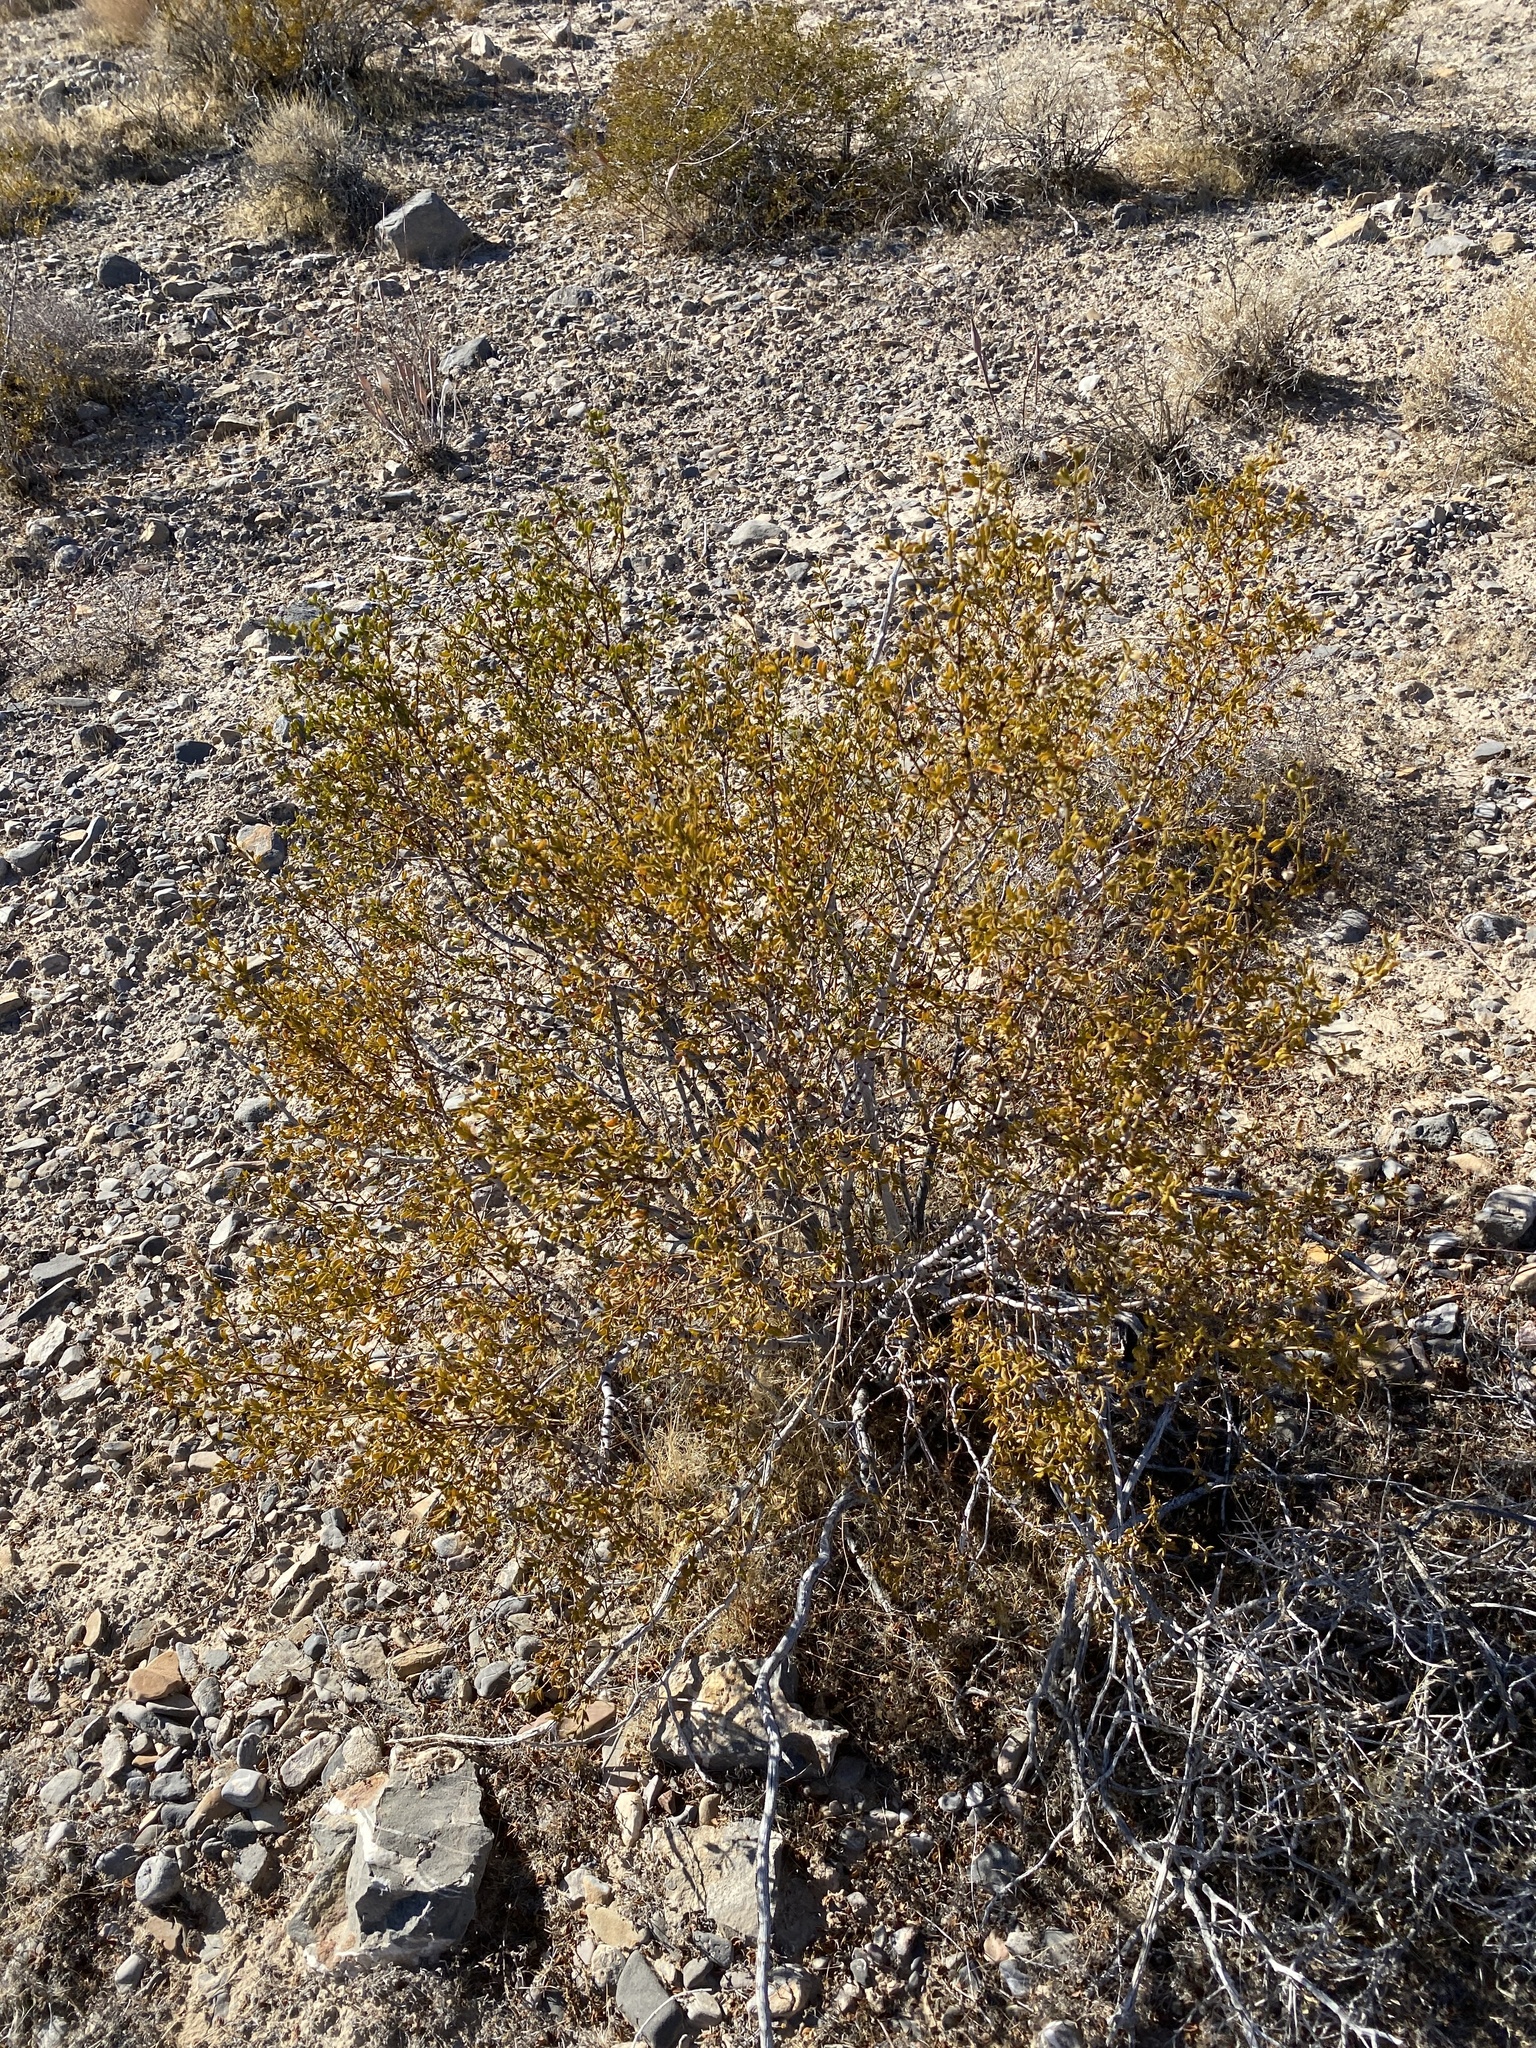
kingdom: Plantae
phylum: Tracheophyta
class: Magnoliopsida
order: Zygophyllales
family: Zygophyllaceae
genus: Larrea
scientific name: Larrea tridentata
